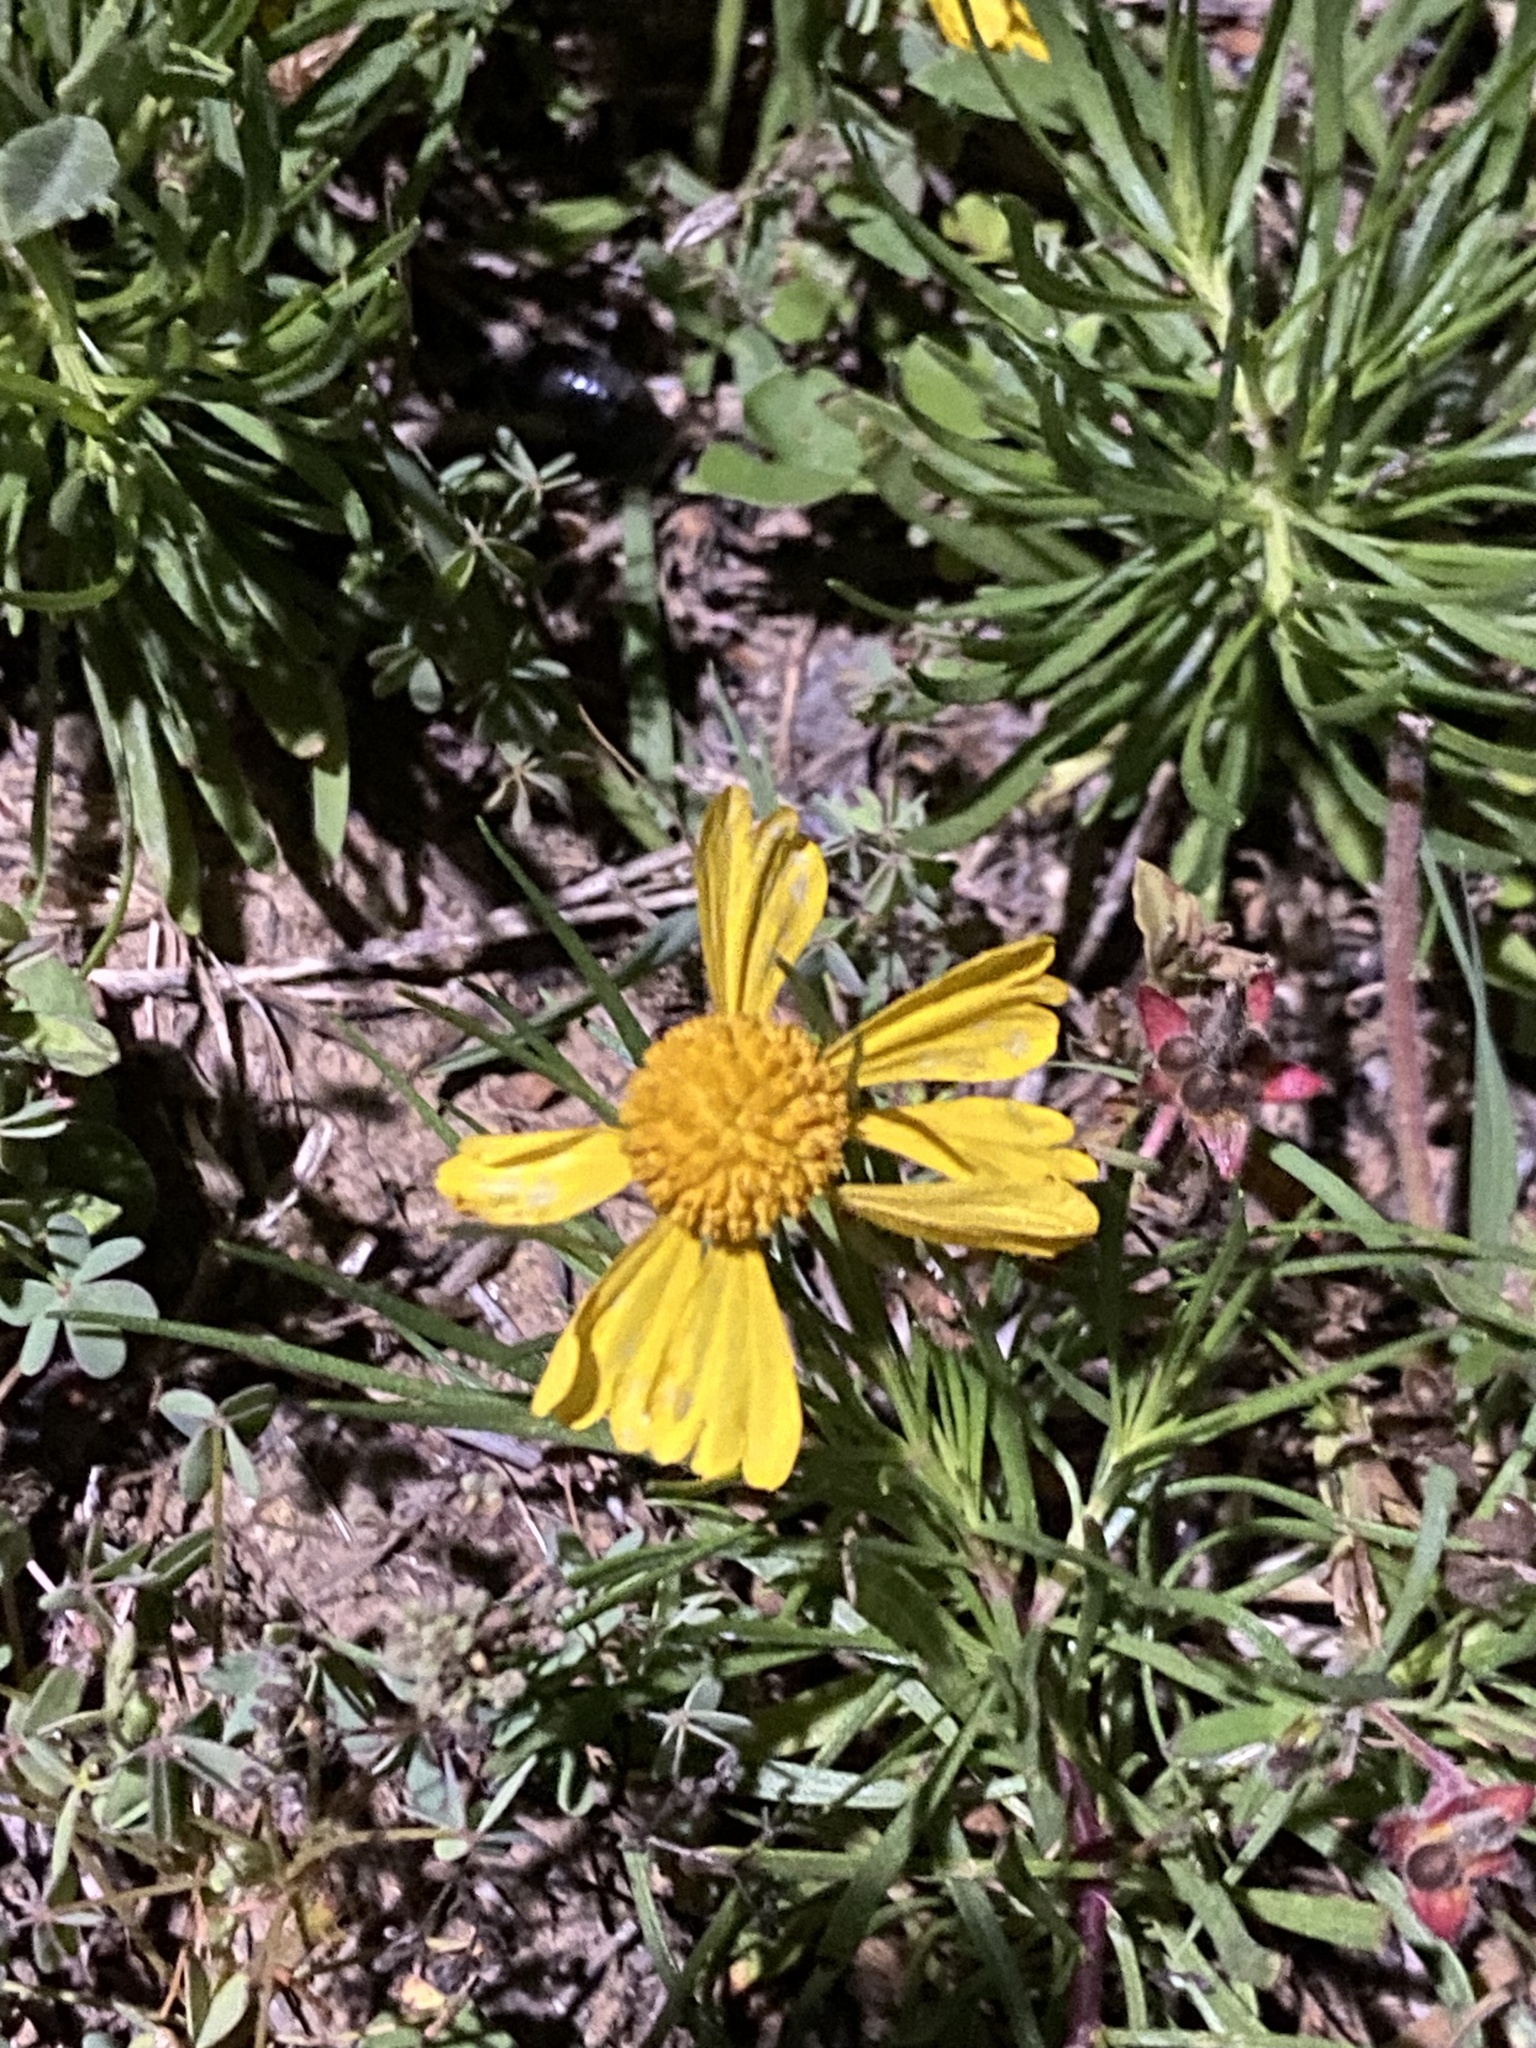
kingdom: Plantae
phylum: Tracheophyta
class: Magnoliopsida
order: Asterales
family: Asteraceae
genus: Helenium
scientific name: Helenium amarum
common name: Bitter sneezeweed
